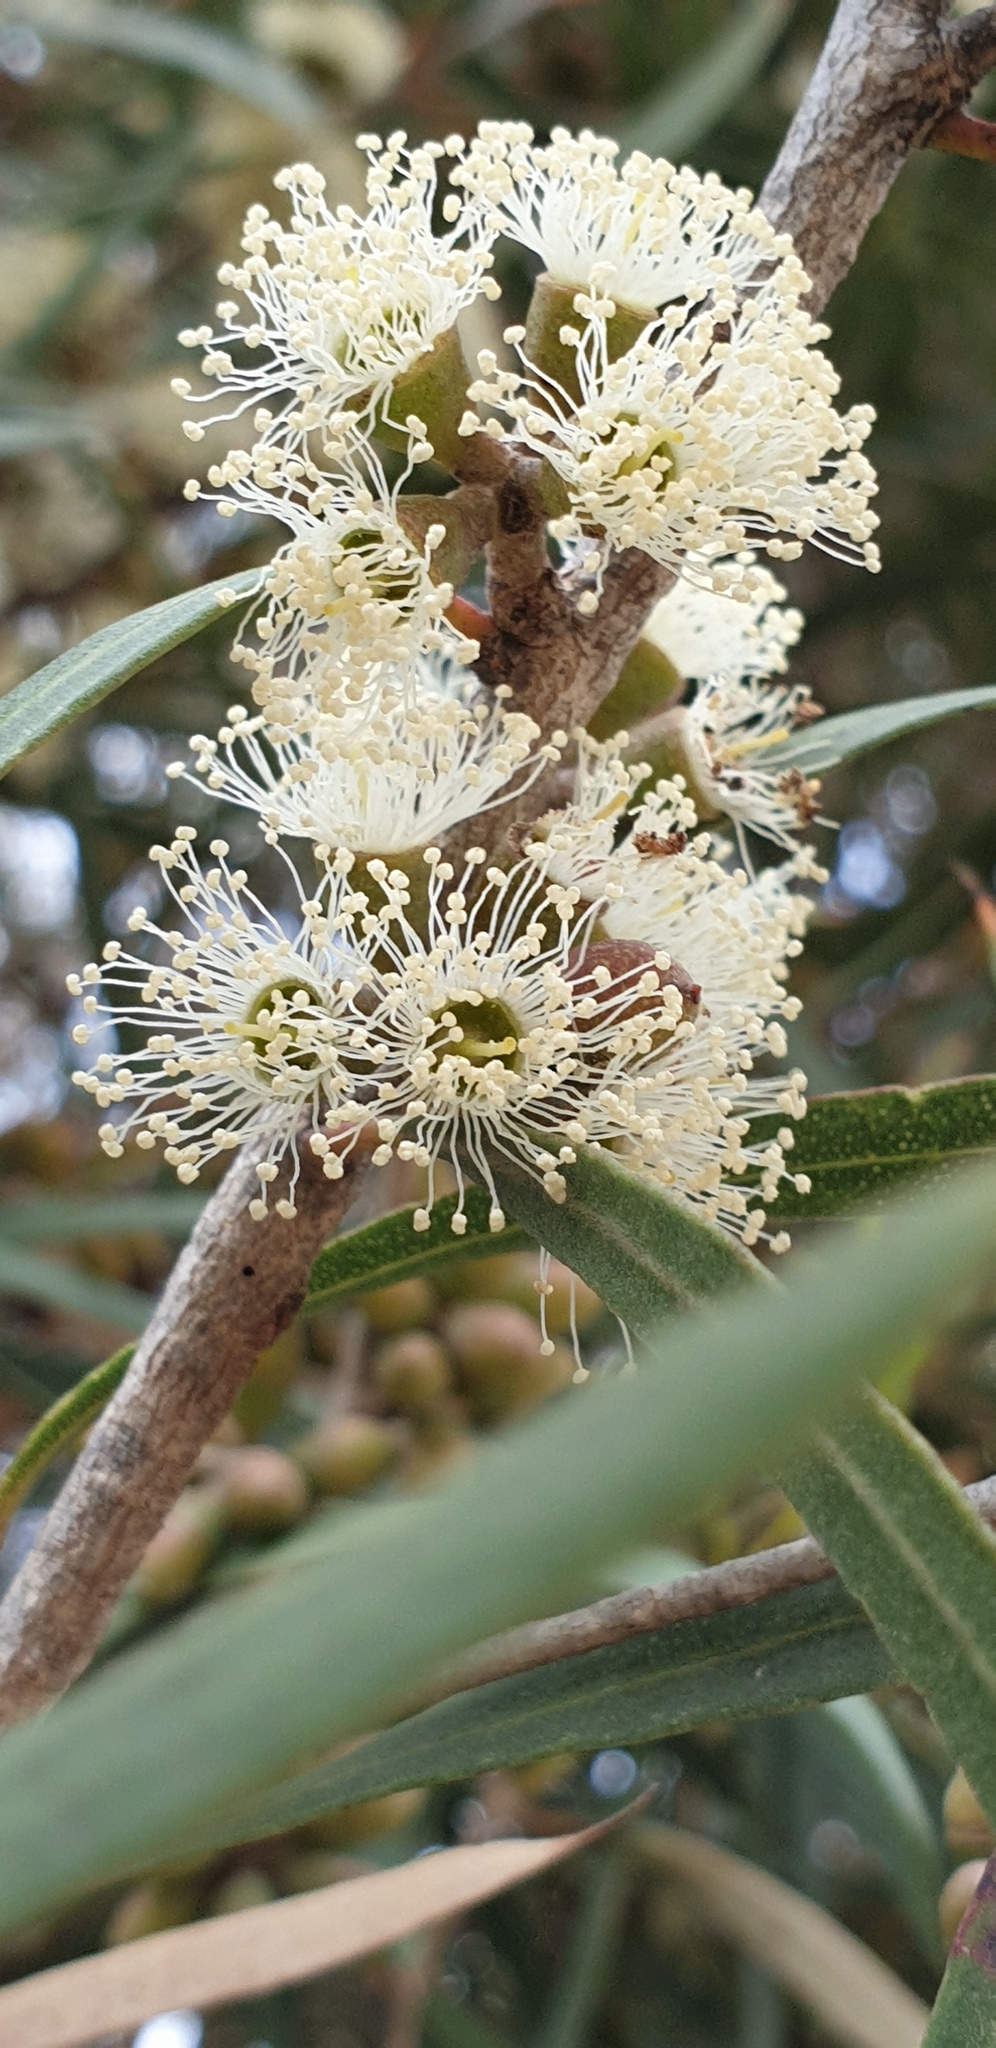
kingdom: Plantae
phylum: Tracheophyta
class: Magnoliopsida
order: Myrtales
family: Myrtaceae
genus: Eucalyptus
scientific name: Eucalyptus cneorifolia
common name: Narrow-leaf mallee
